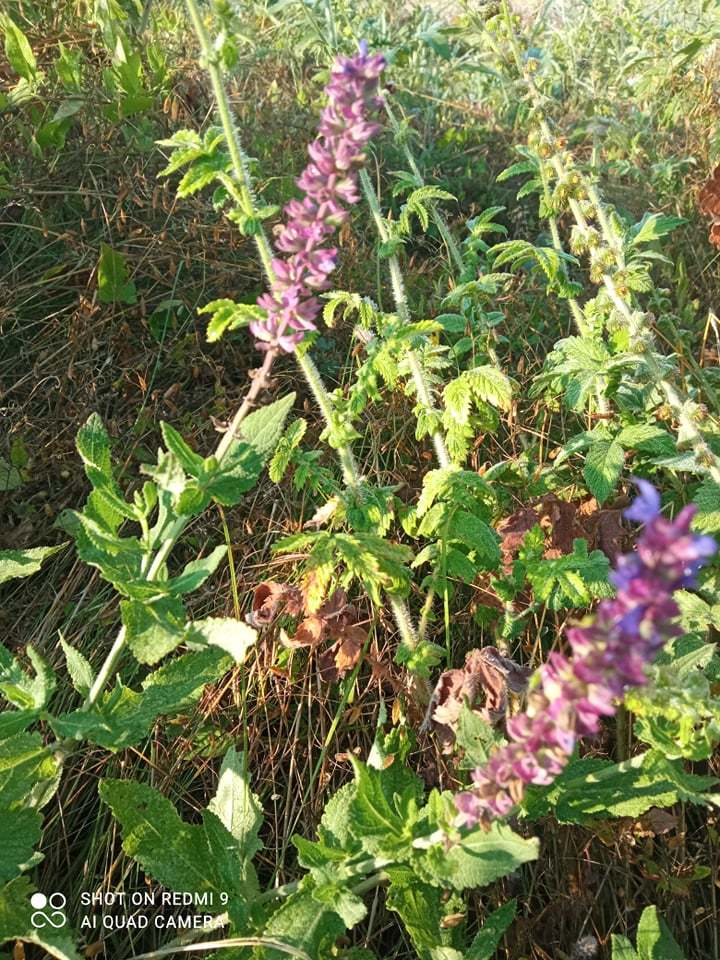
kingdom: Plantae
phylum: Tracheophyta
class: Magnoliopsida
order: Lamiales
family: Lamiaceae
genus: Salvia
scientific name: Salvia nemorosa
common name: Balkan clary
